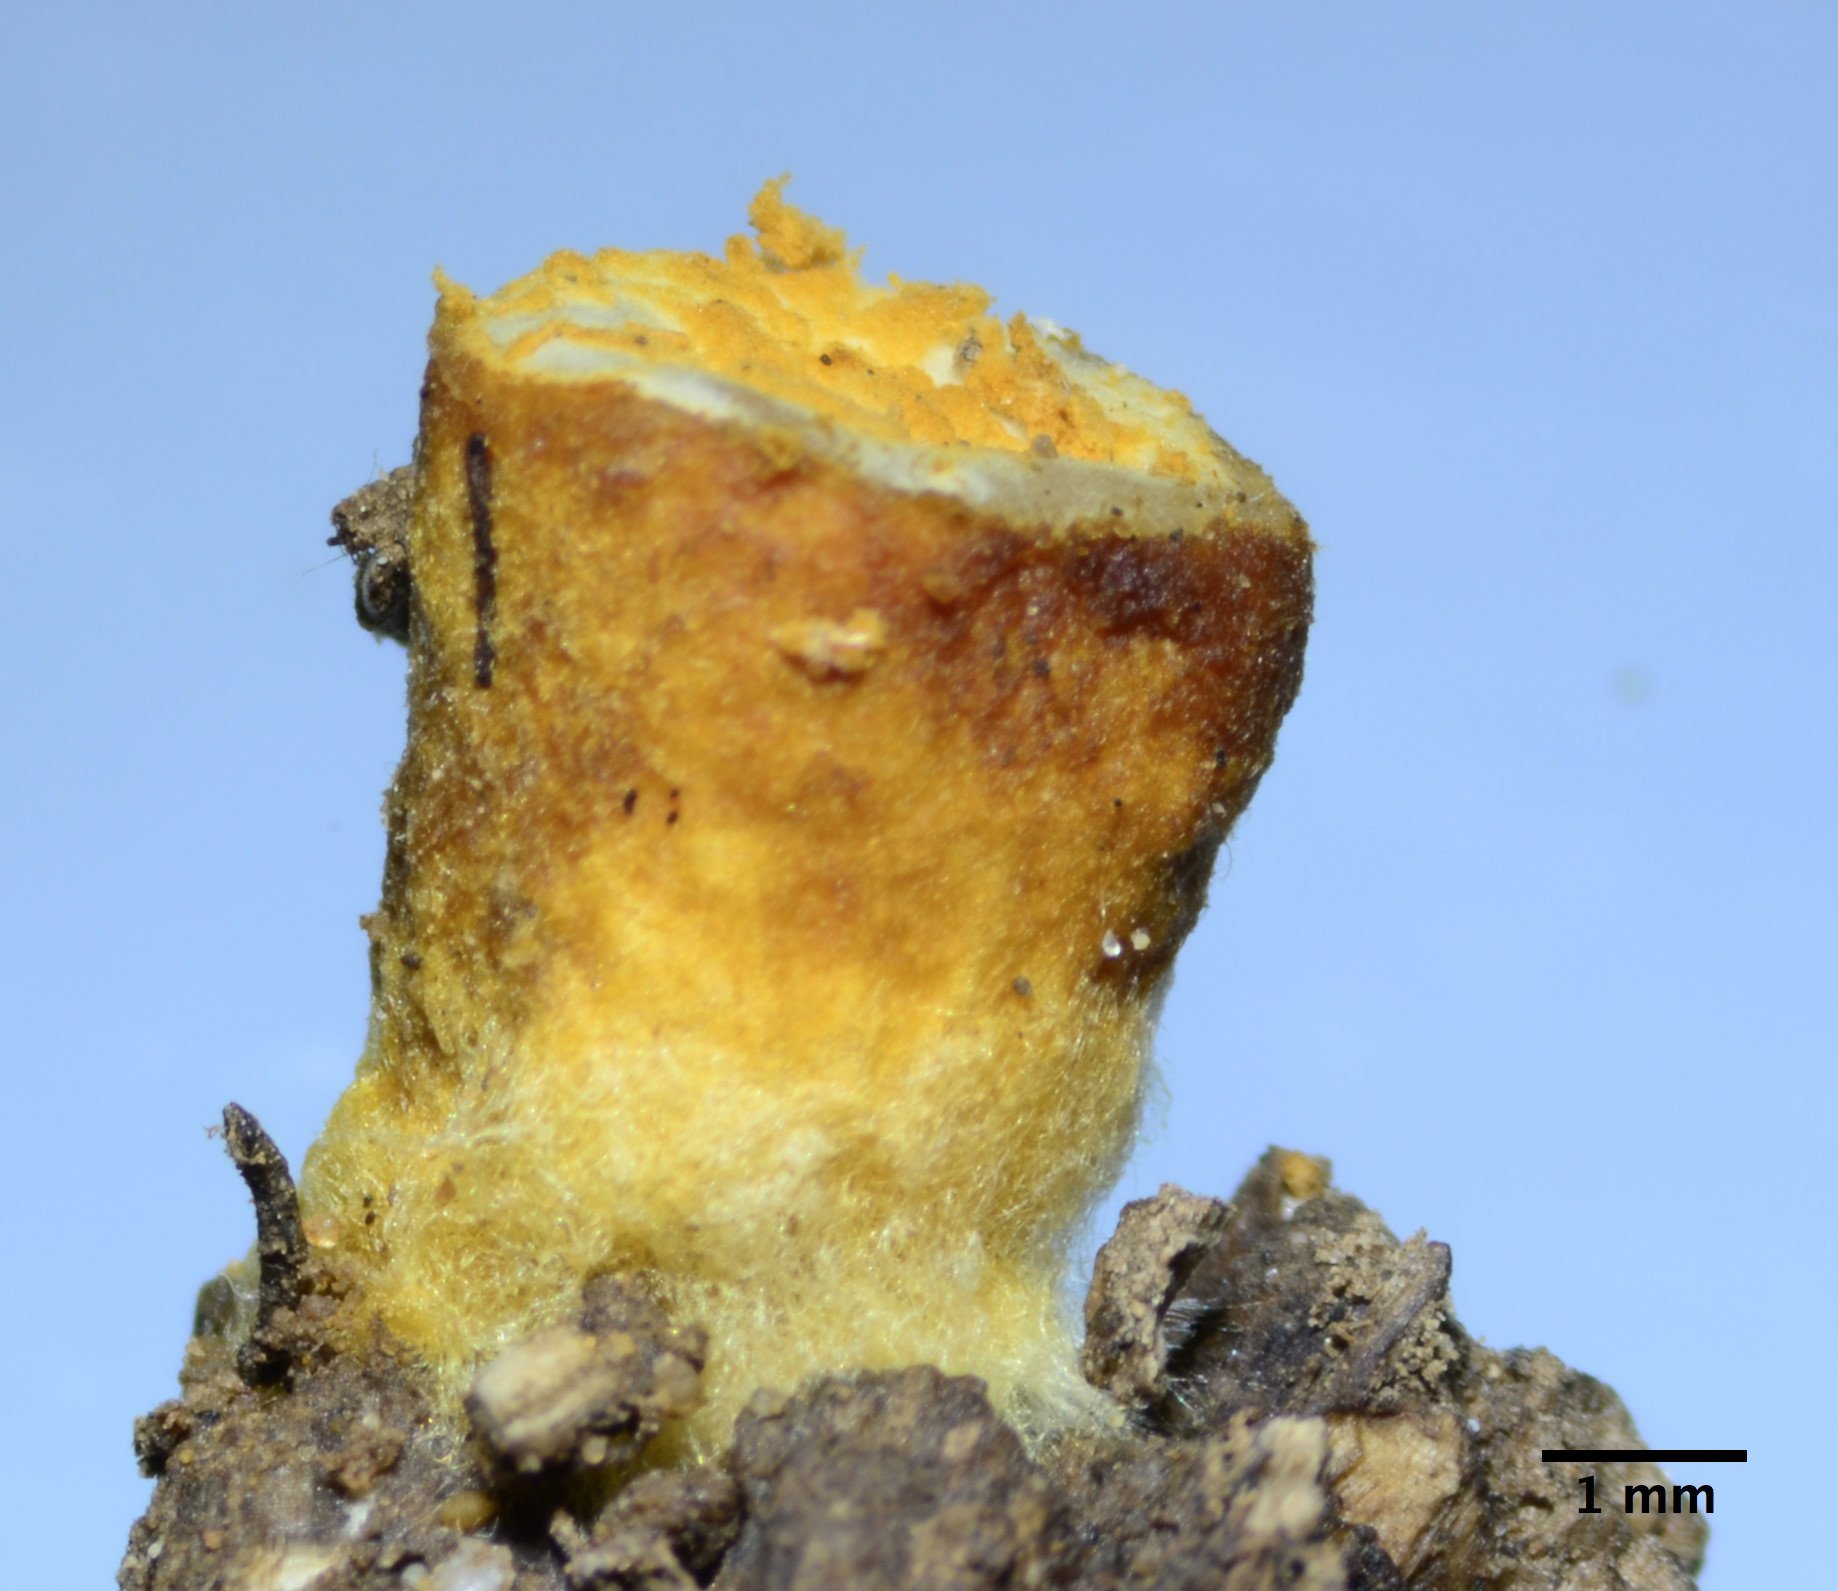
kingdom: Fungi
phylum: Basidiomycota
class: Agaricomycetes
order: Agaricales
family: Agaricaceae
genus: Nidula
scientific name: Nidula candida
